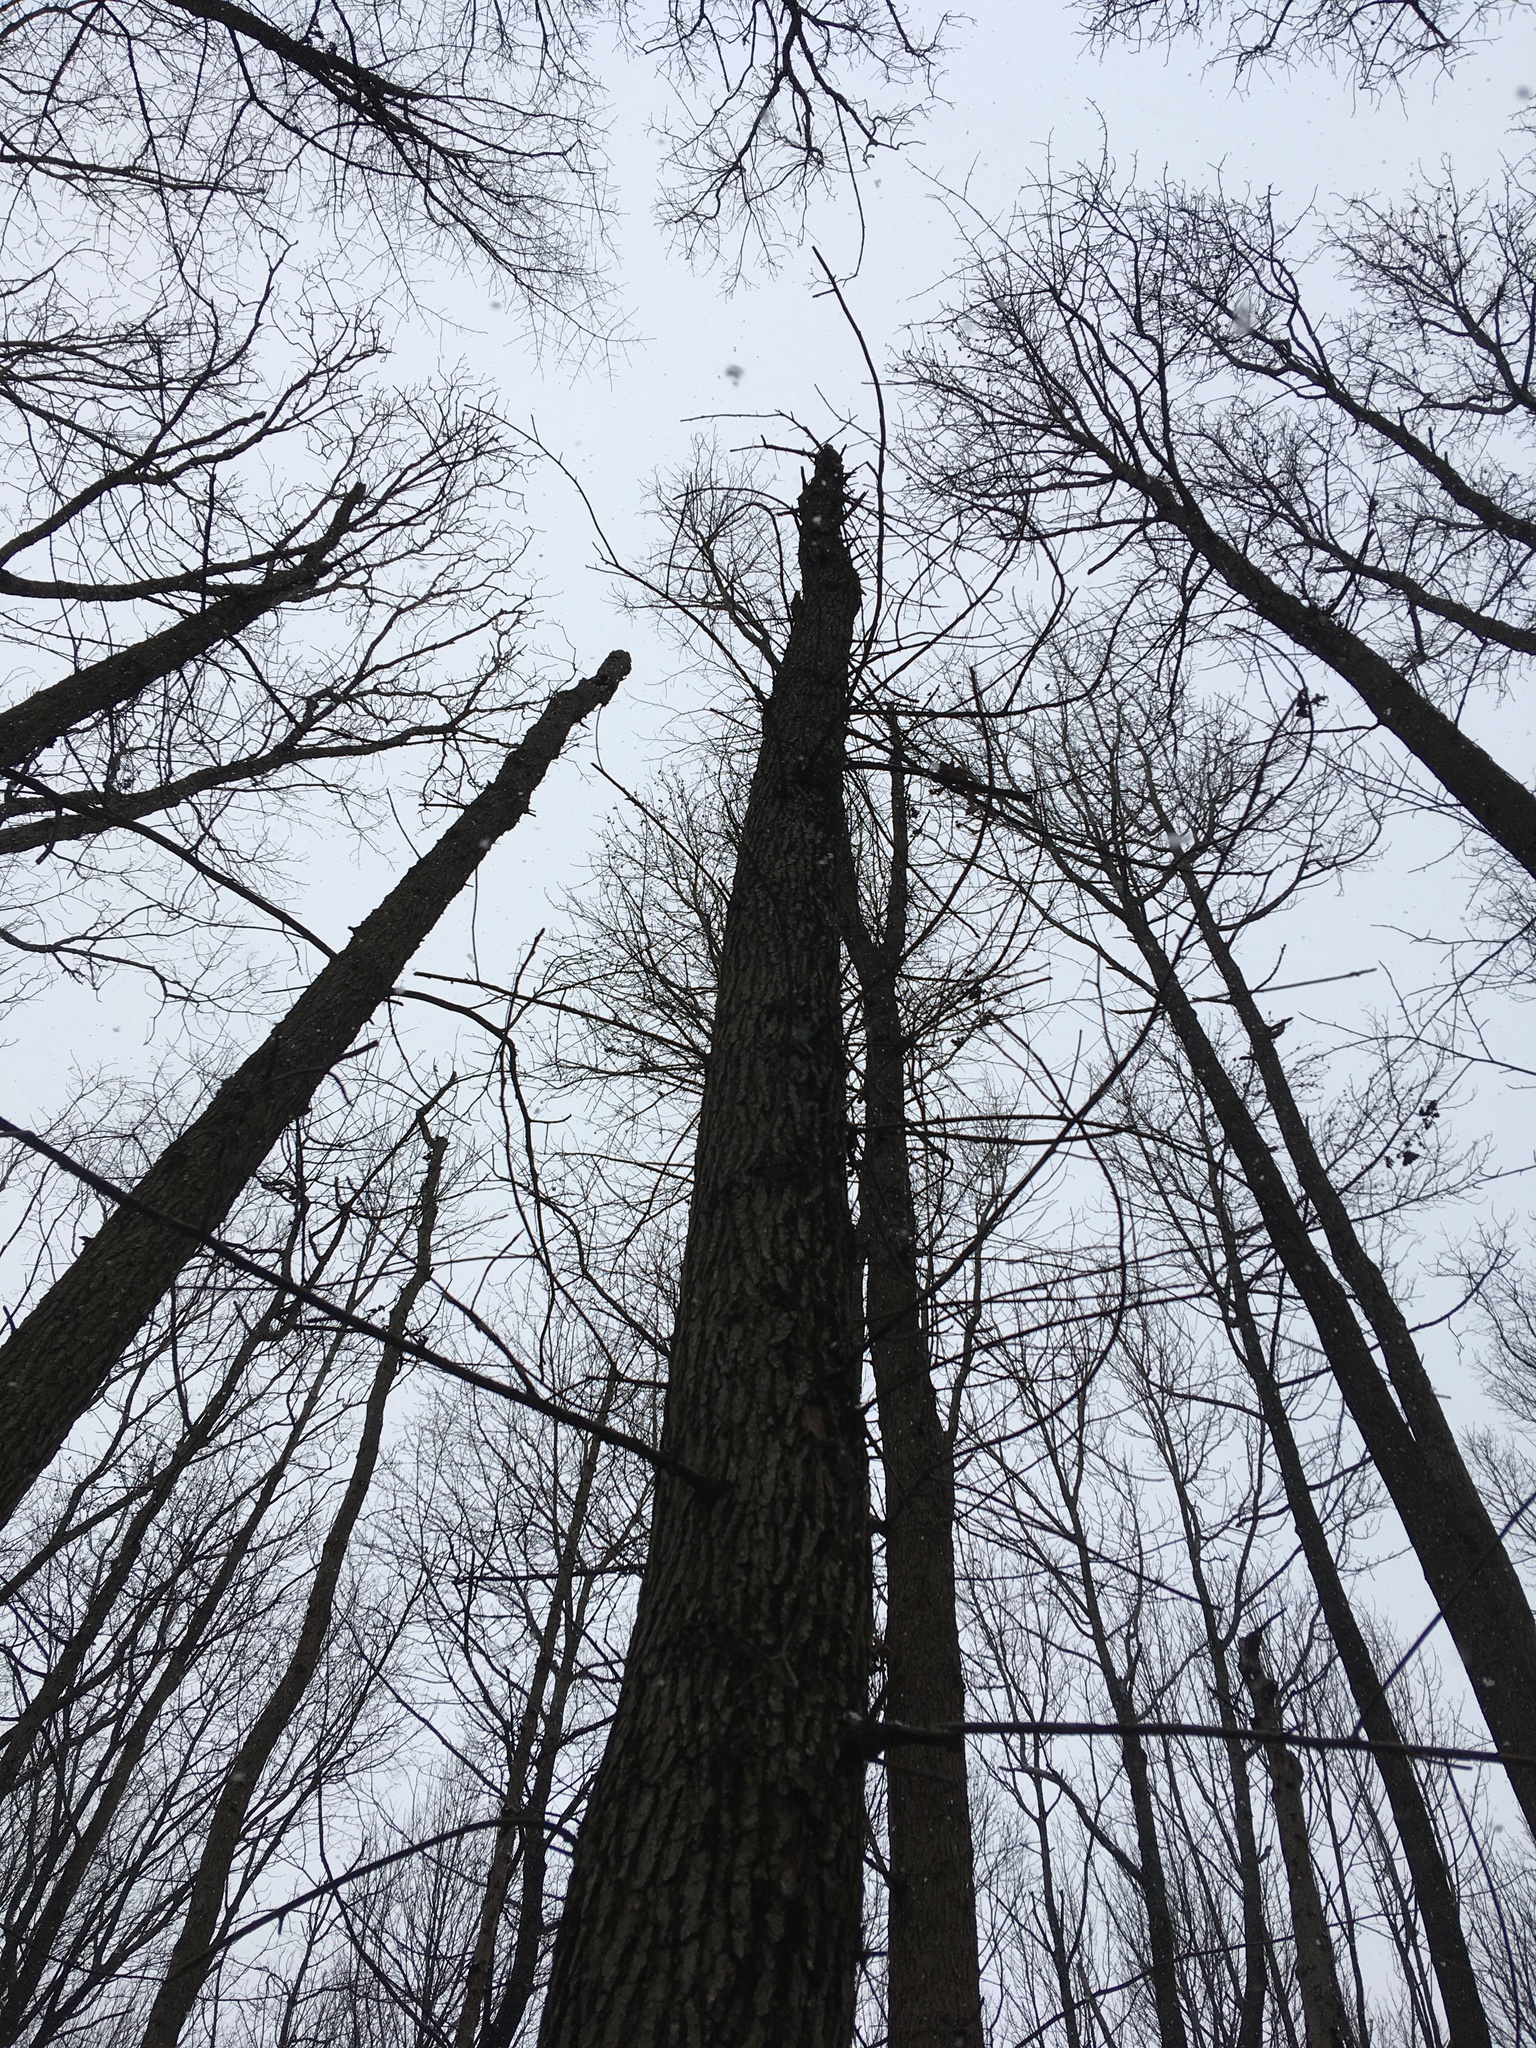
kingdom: Plantae
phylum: Tracheophyta
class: Magnoliopsida
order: Saxifragales
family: Altingiaceae
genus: Liquidambar
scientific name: Liquidambar styraciflua
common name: Sweet gum
